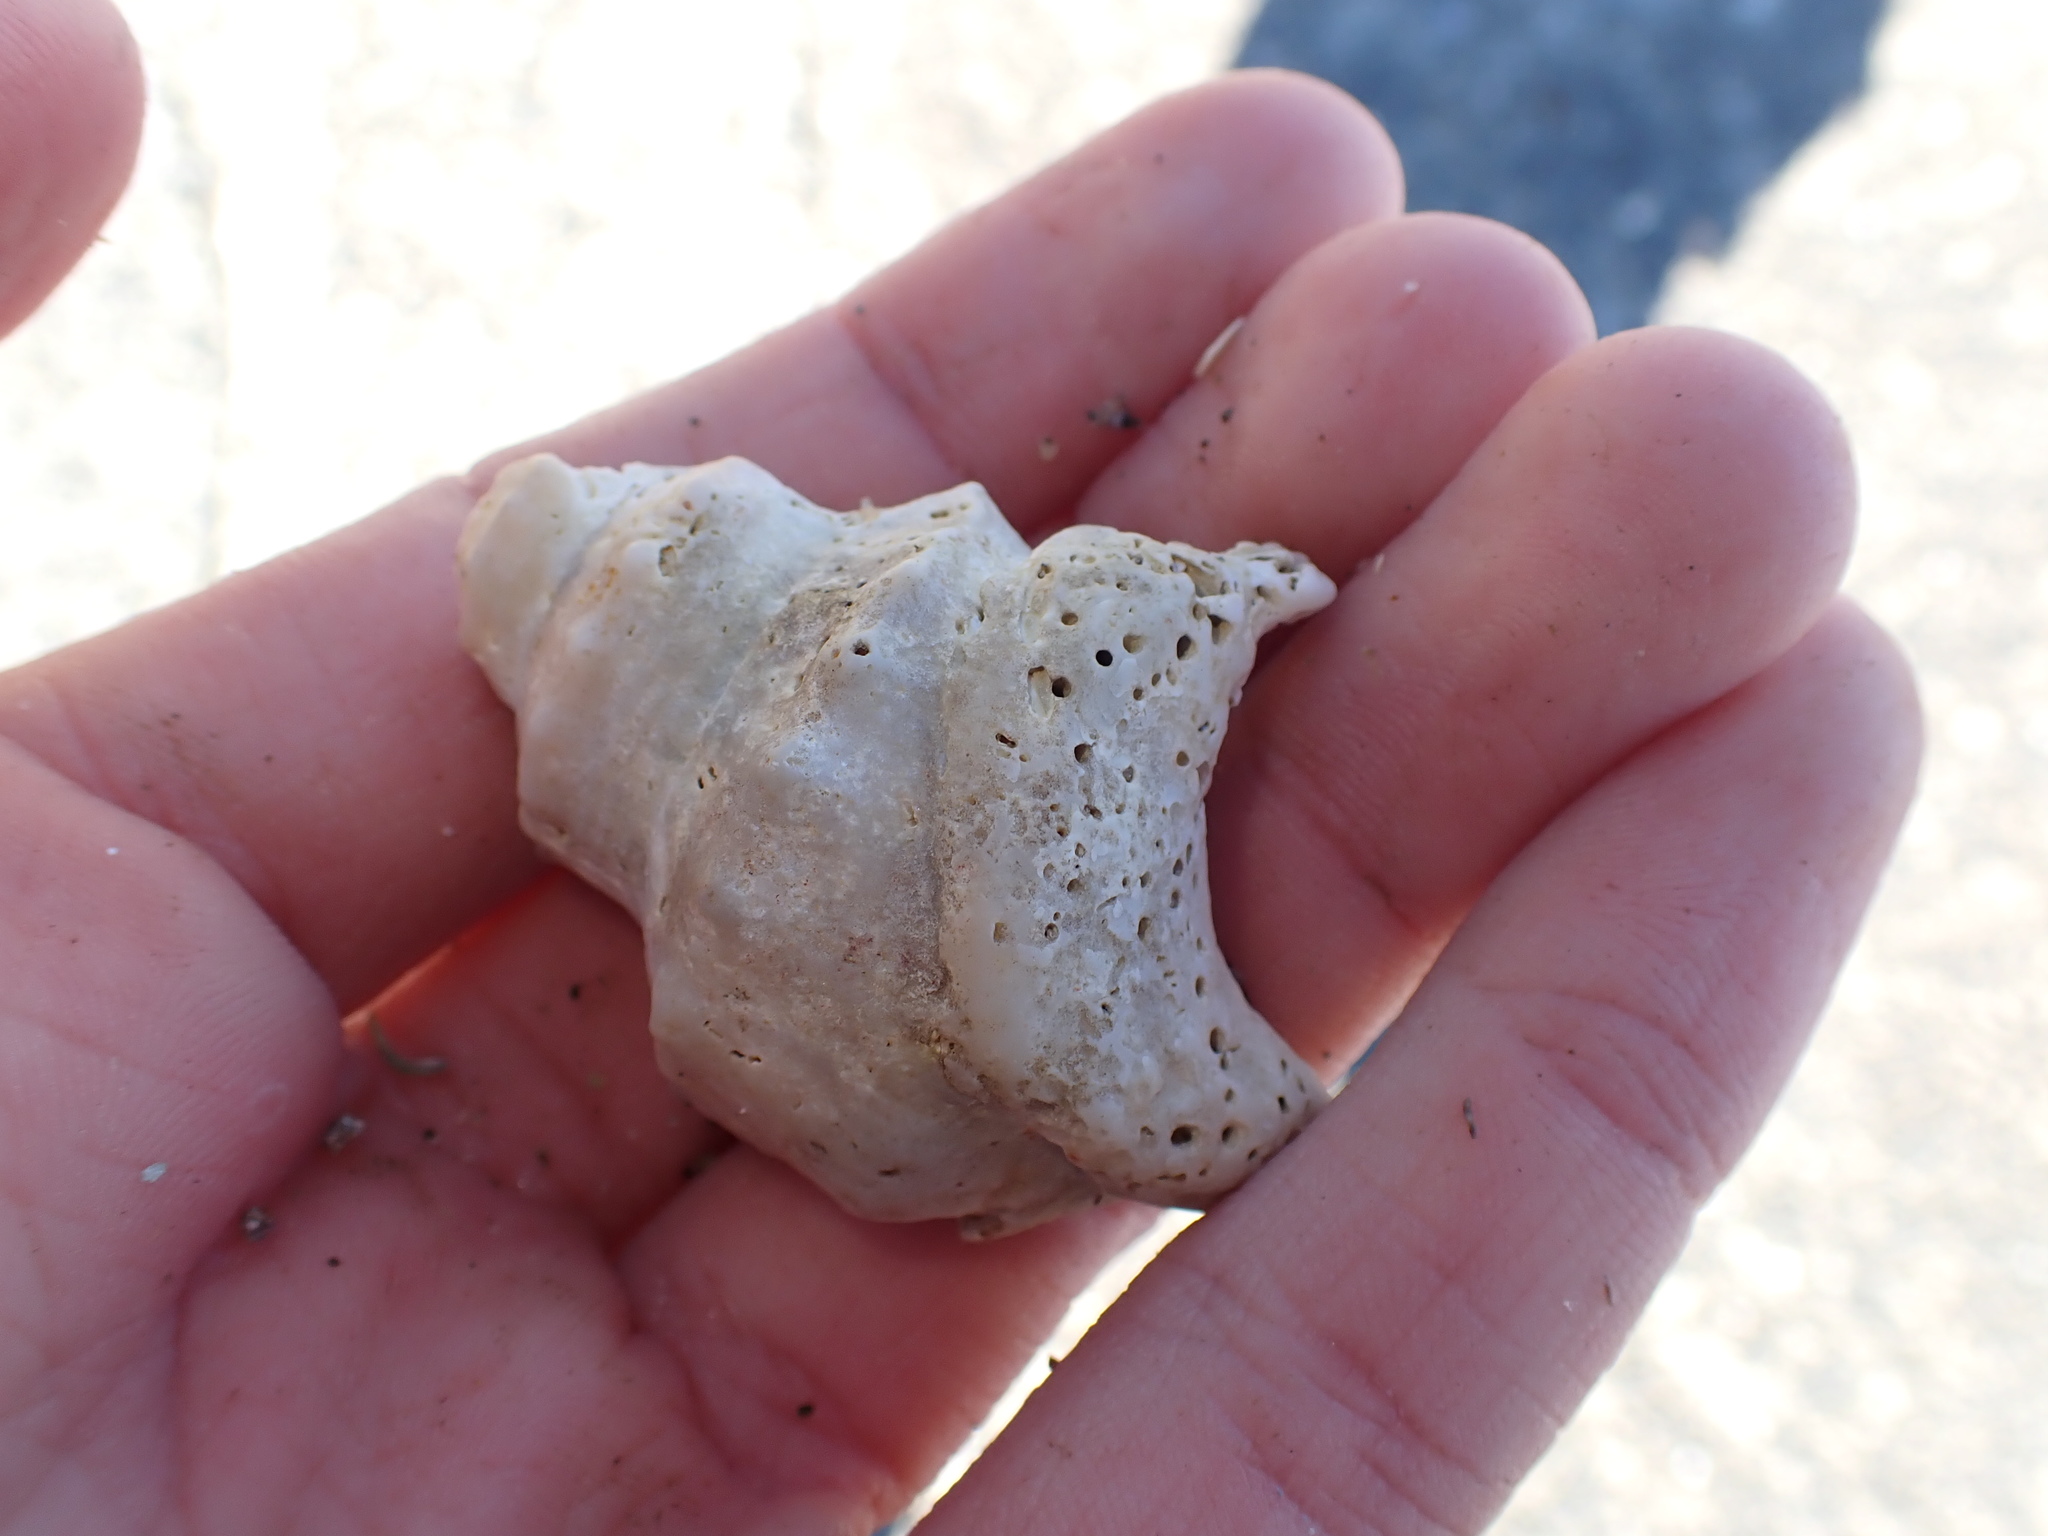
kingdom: Animalia
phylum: Mollusca
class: Gastropoda
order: Littorinimorpha
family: Struthiolariidae
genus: Struthiolaria
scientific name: Struthiolaria papulosa
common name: Large ostrich foot
